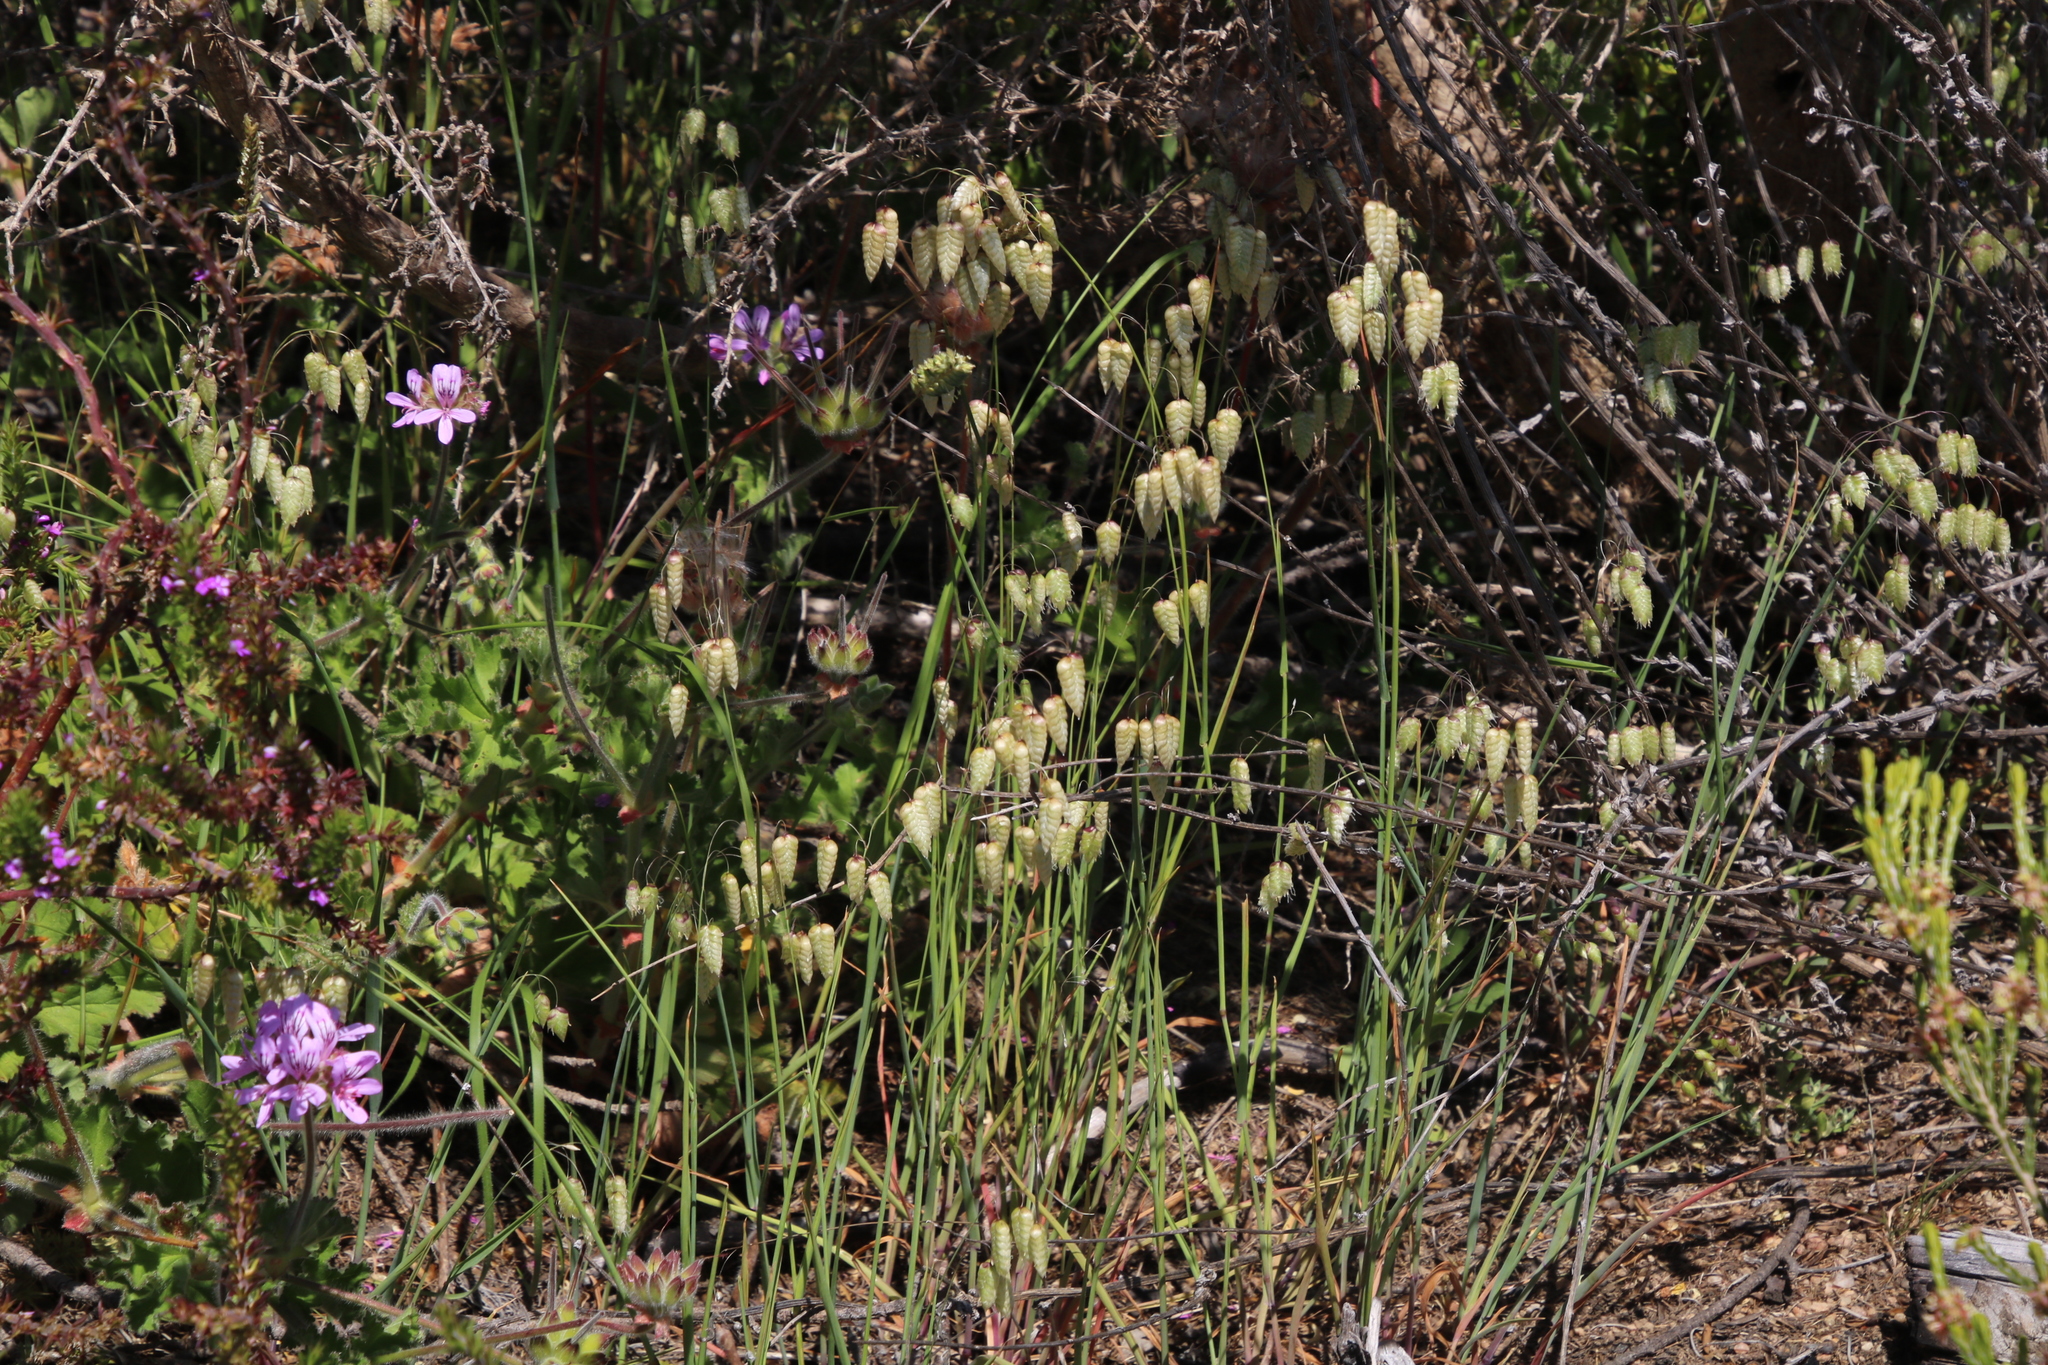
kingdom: Plantae
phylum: Tracheophyta
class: Liliopsida
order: Poales
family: Poaceae
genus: Briza
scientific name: Briza maxima
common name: Big quakinggrass
